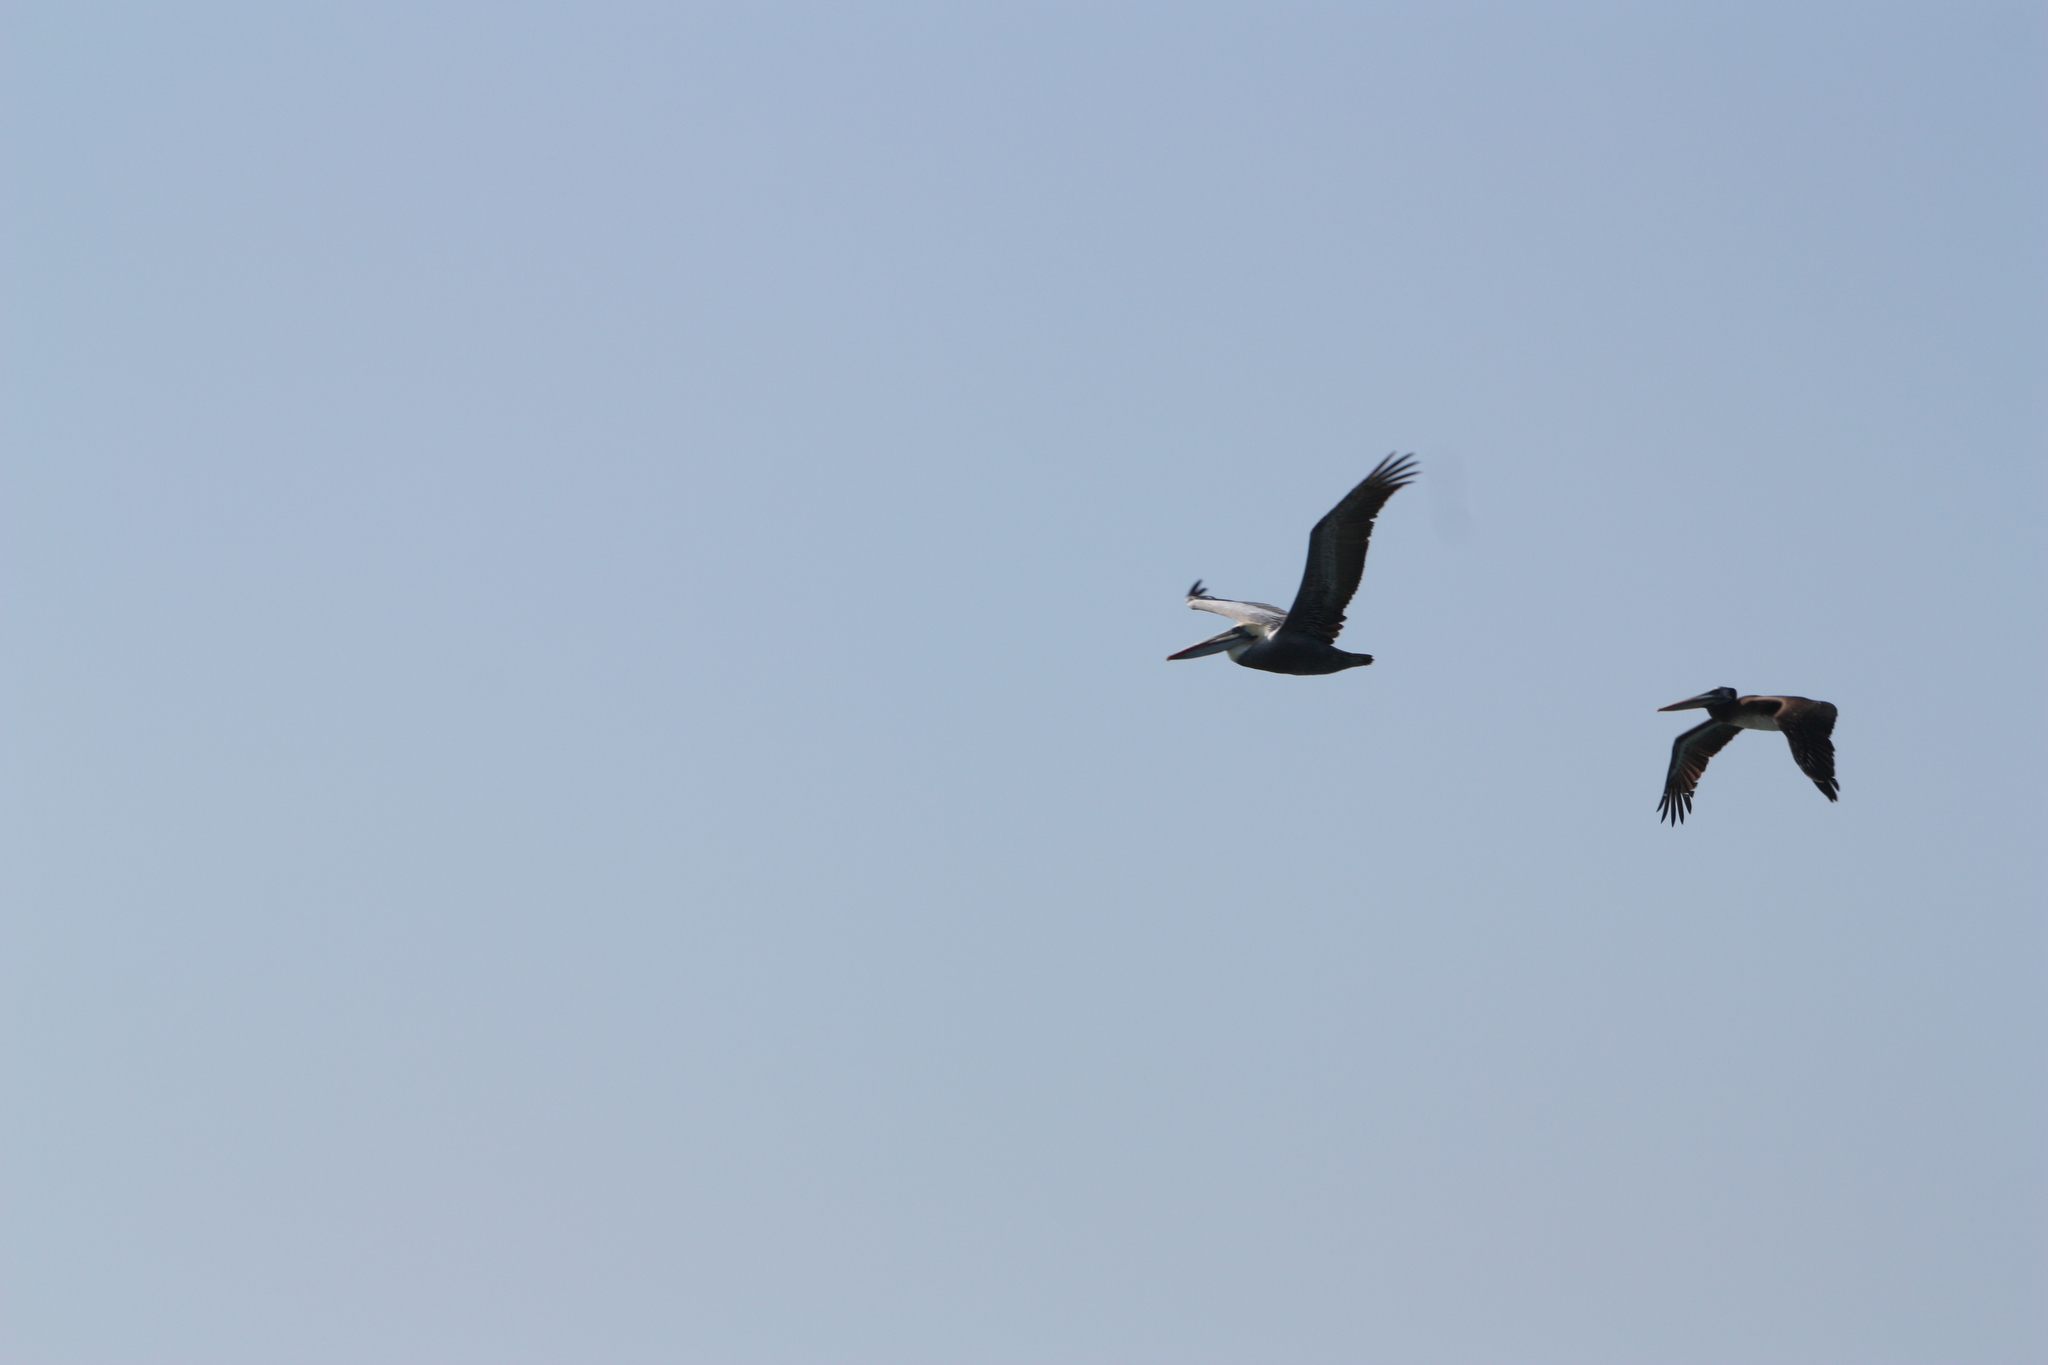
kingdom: Animalia
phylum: Chordata
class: Aves
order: Pelecaniformes
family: Pelecanidae
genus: Pelecanus
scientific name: Pelecanus thagus
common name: Peruvian pelican
